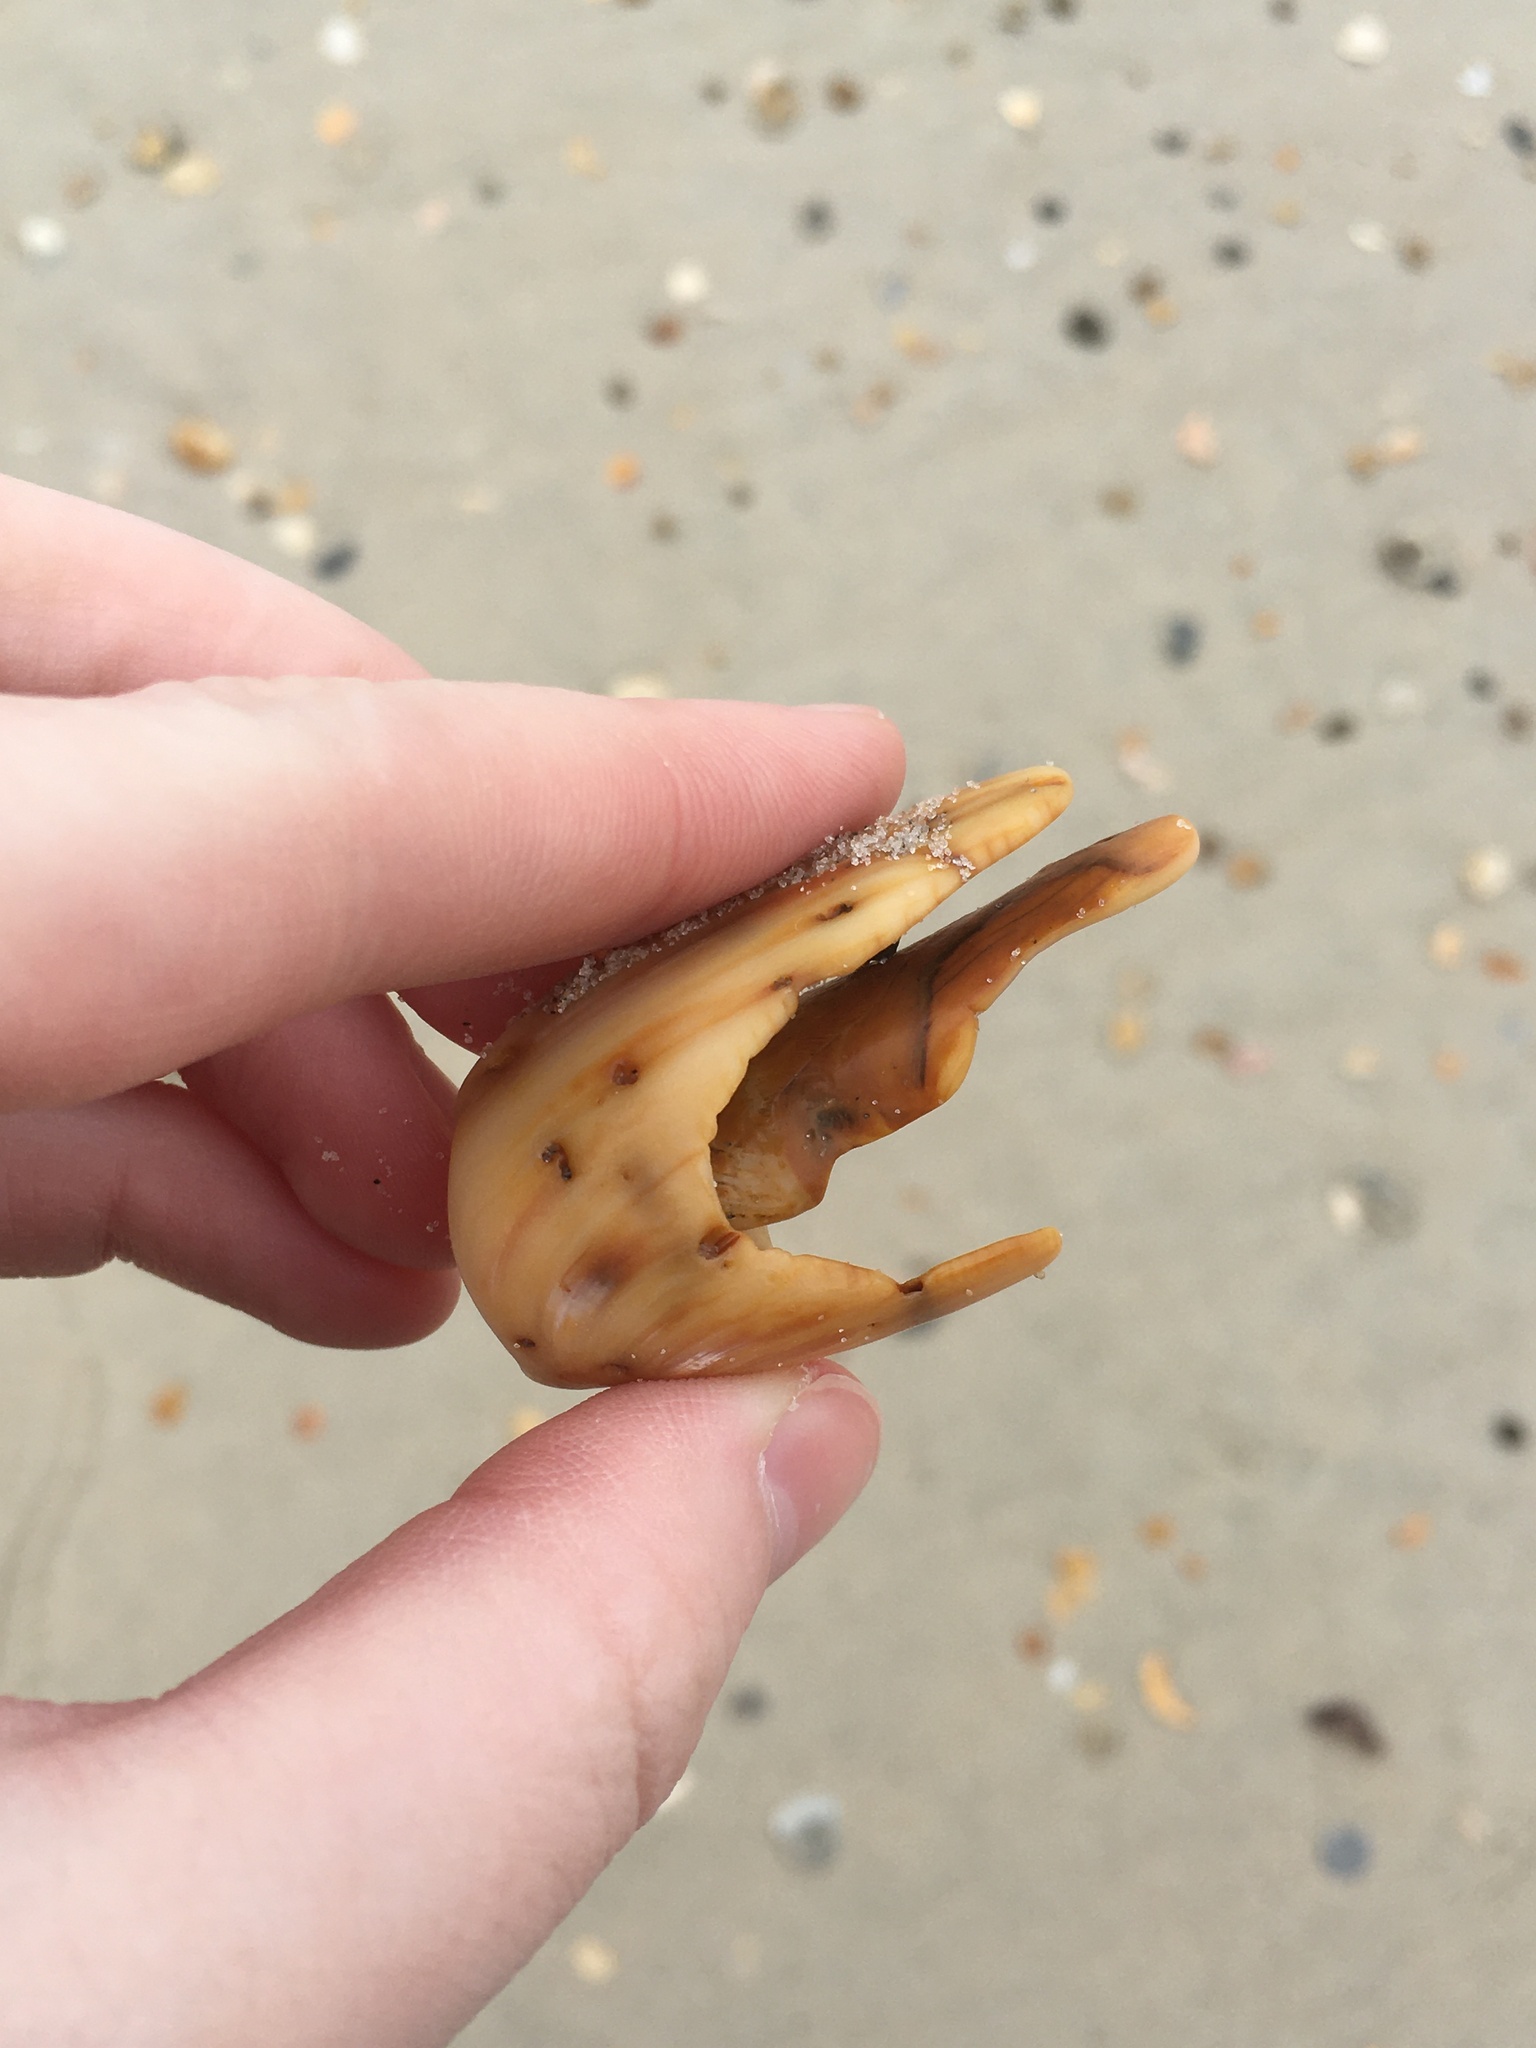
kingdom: Animalia
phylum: Mollusca
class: Gastropoda
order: Neogastropoda
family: Olividae
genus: Oliva
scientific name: Oliva sayana
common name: Lettered olive
